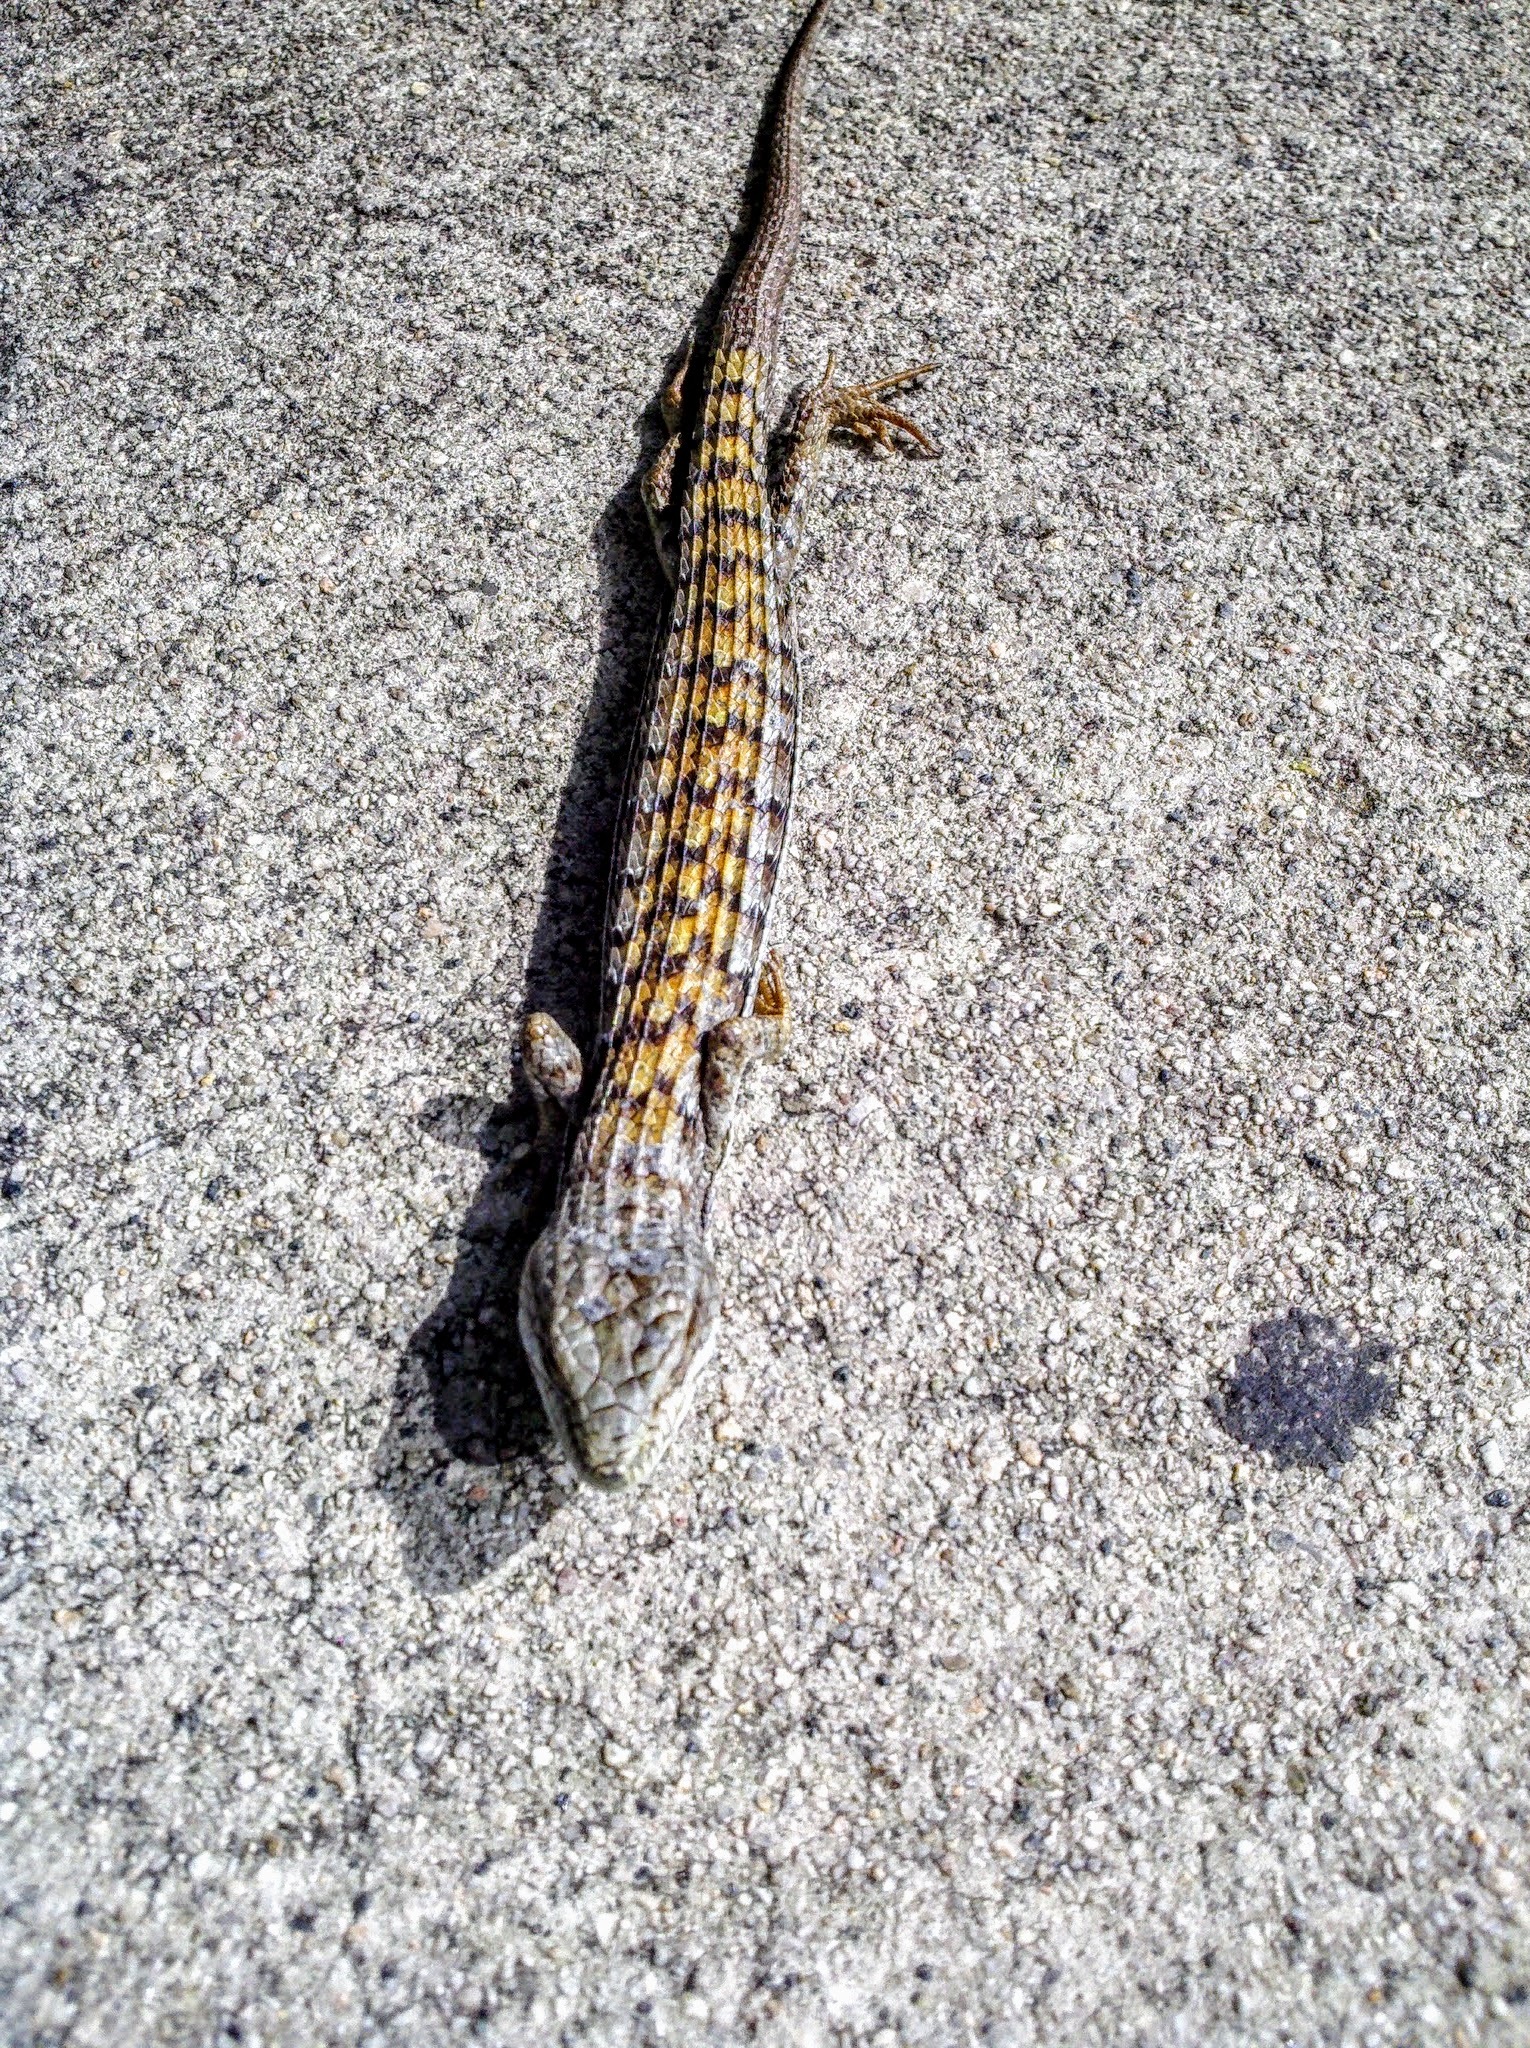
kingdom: Animalia
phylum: Chordata
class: Squamata
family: Anguidae
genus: Elgaria
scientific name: Elgaria multicarinata
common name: Southern alligator lizard
